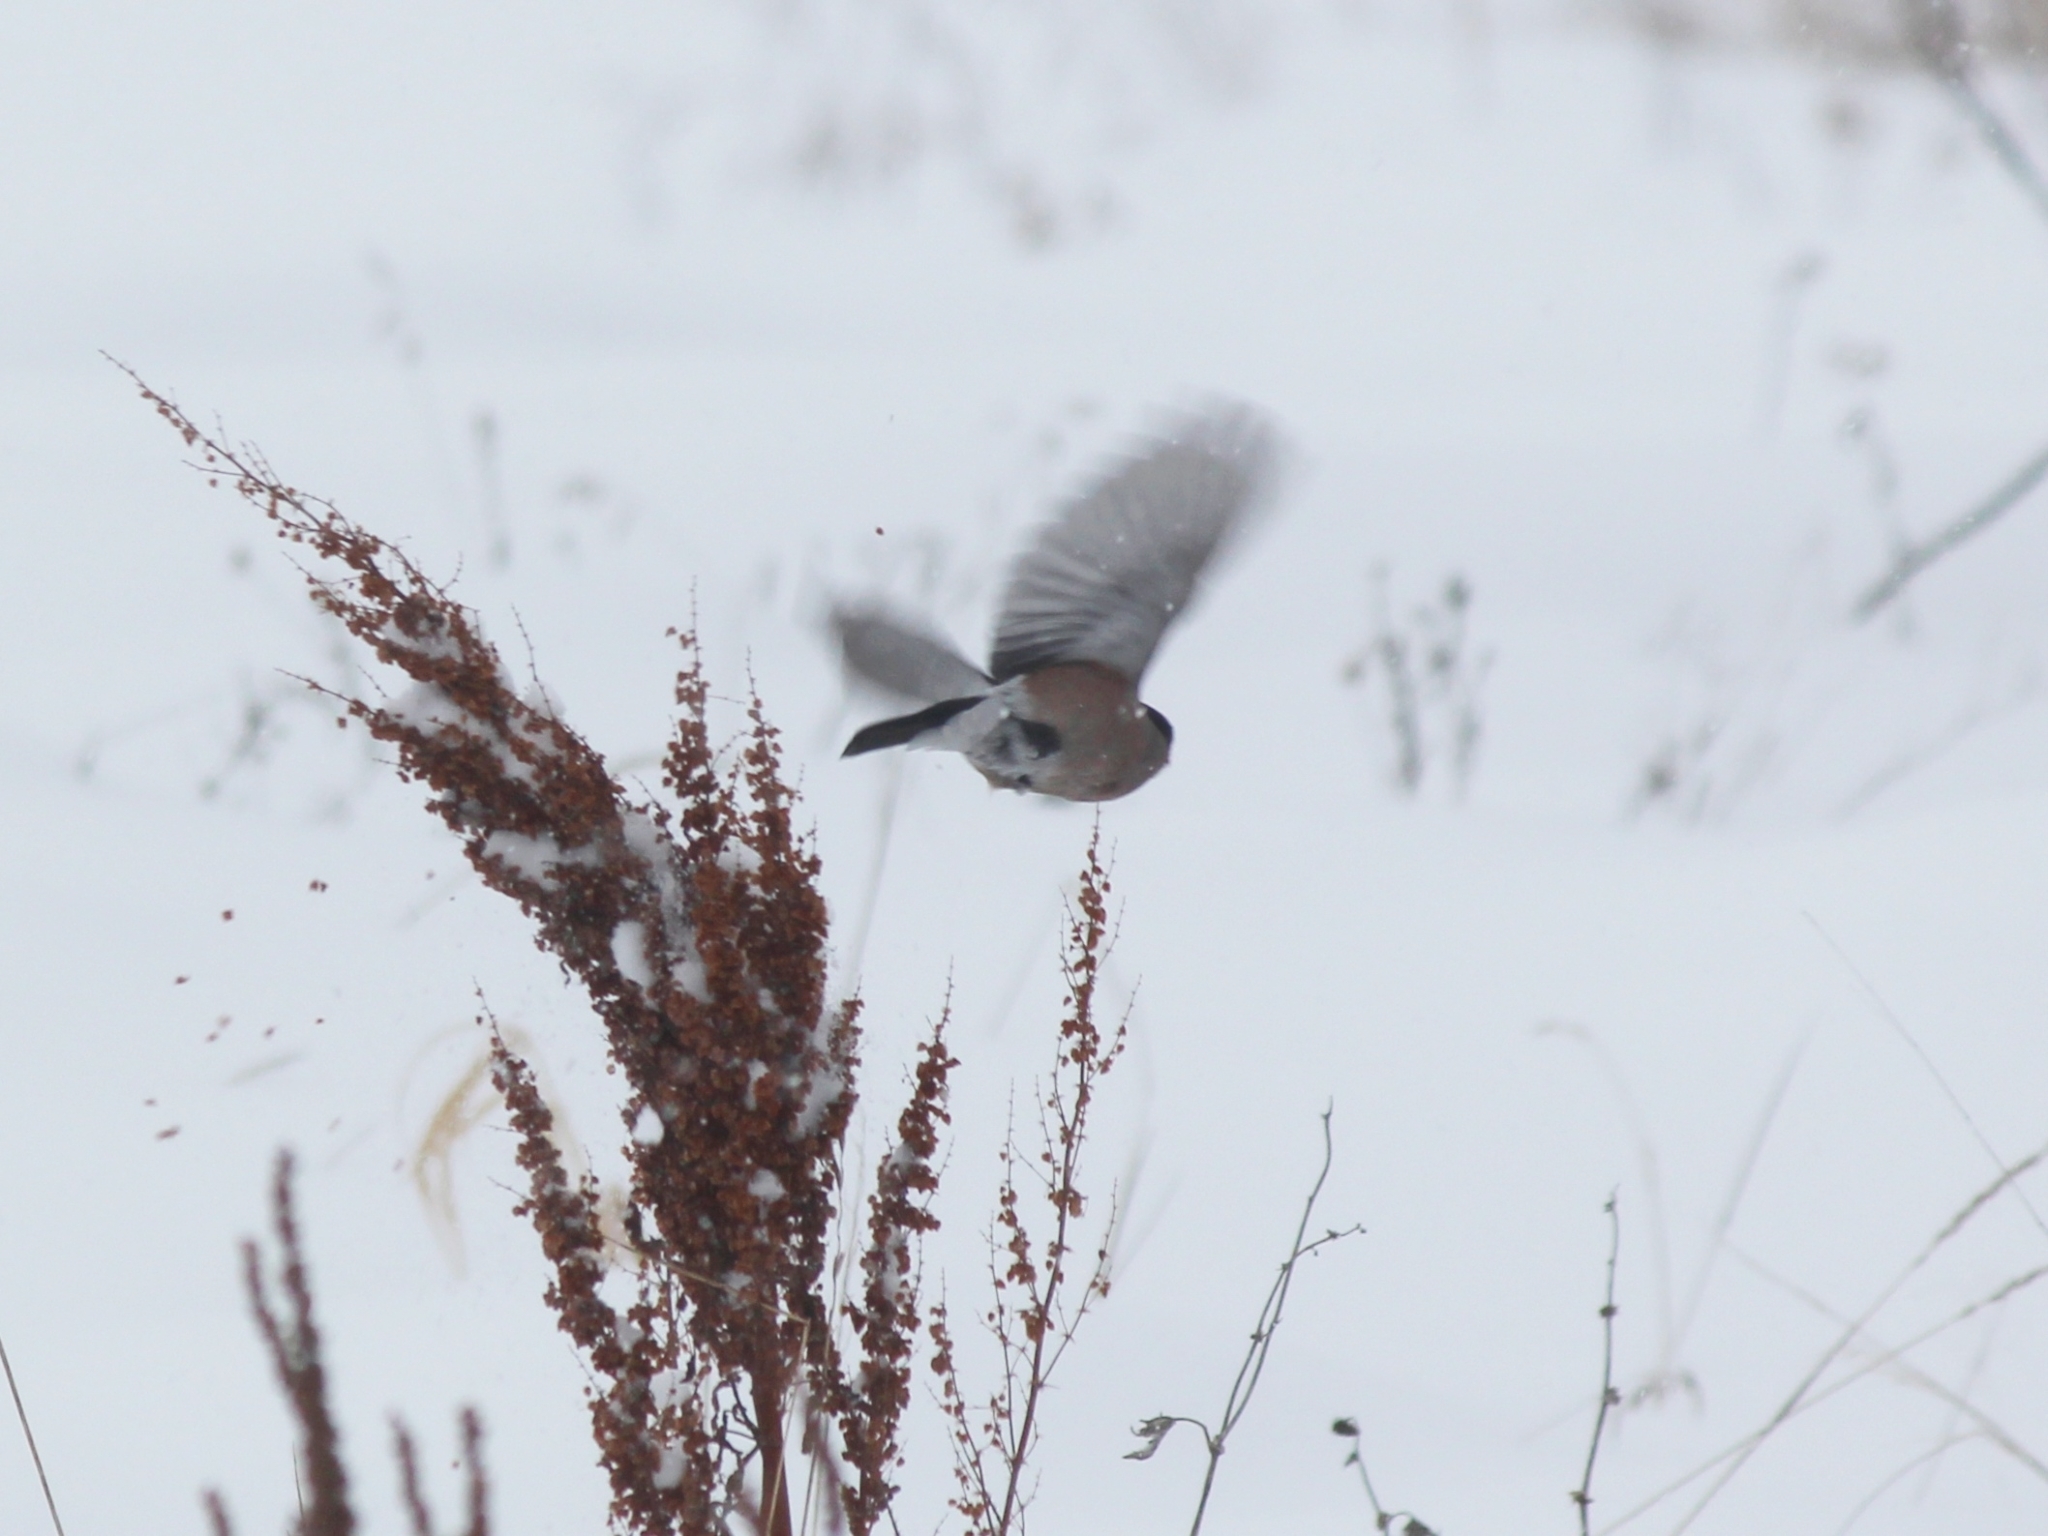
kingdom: Animalia
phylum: Chordata
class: Aves
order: Passeriformes
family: Fringillidae
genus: Pyrrhula
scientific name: Pyrrhula pyrrhula
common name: Eurasian bullfinch
